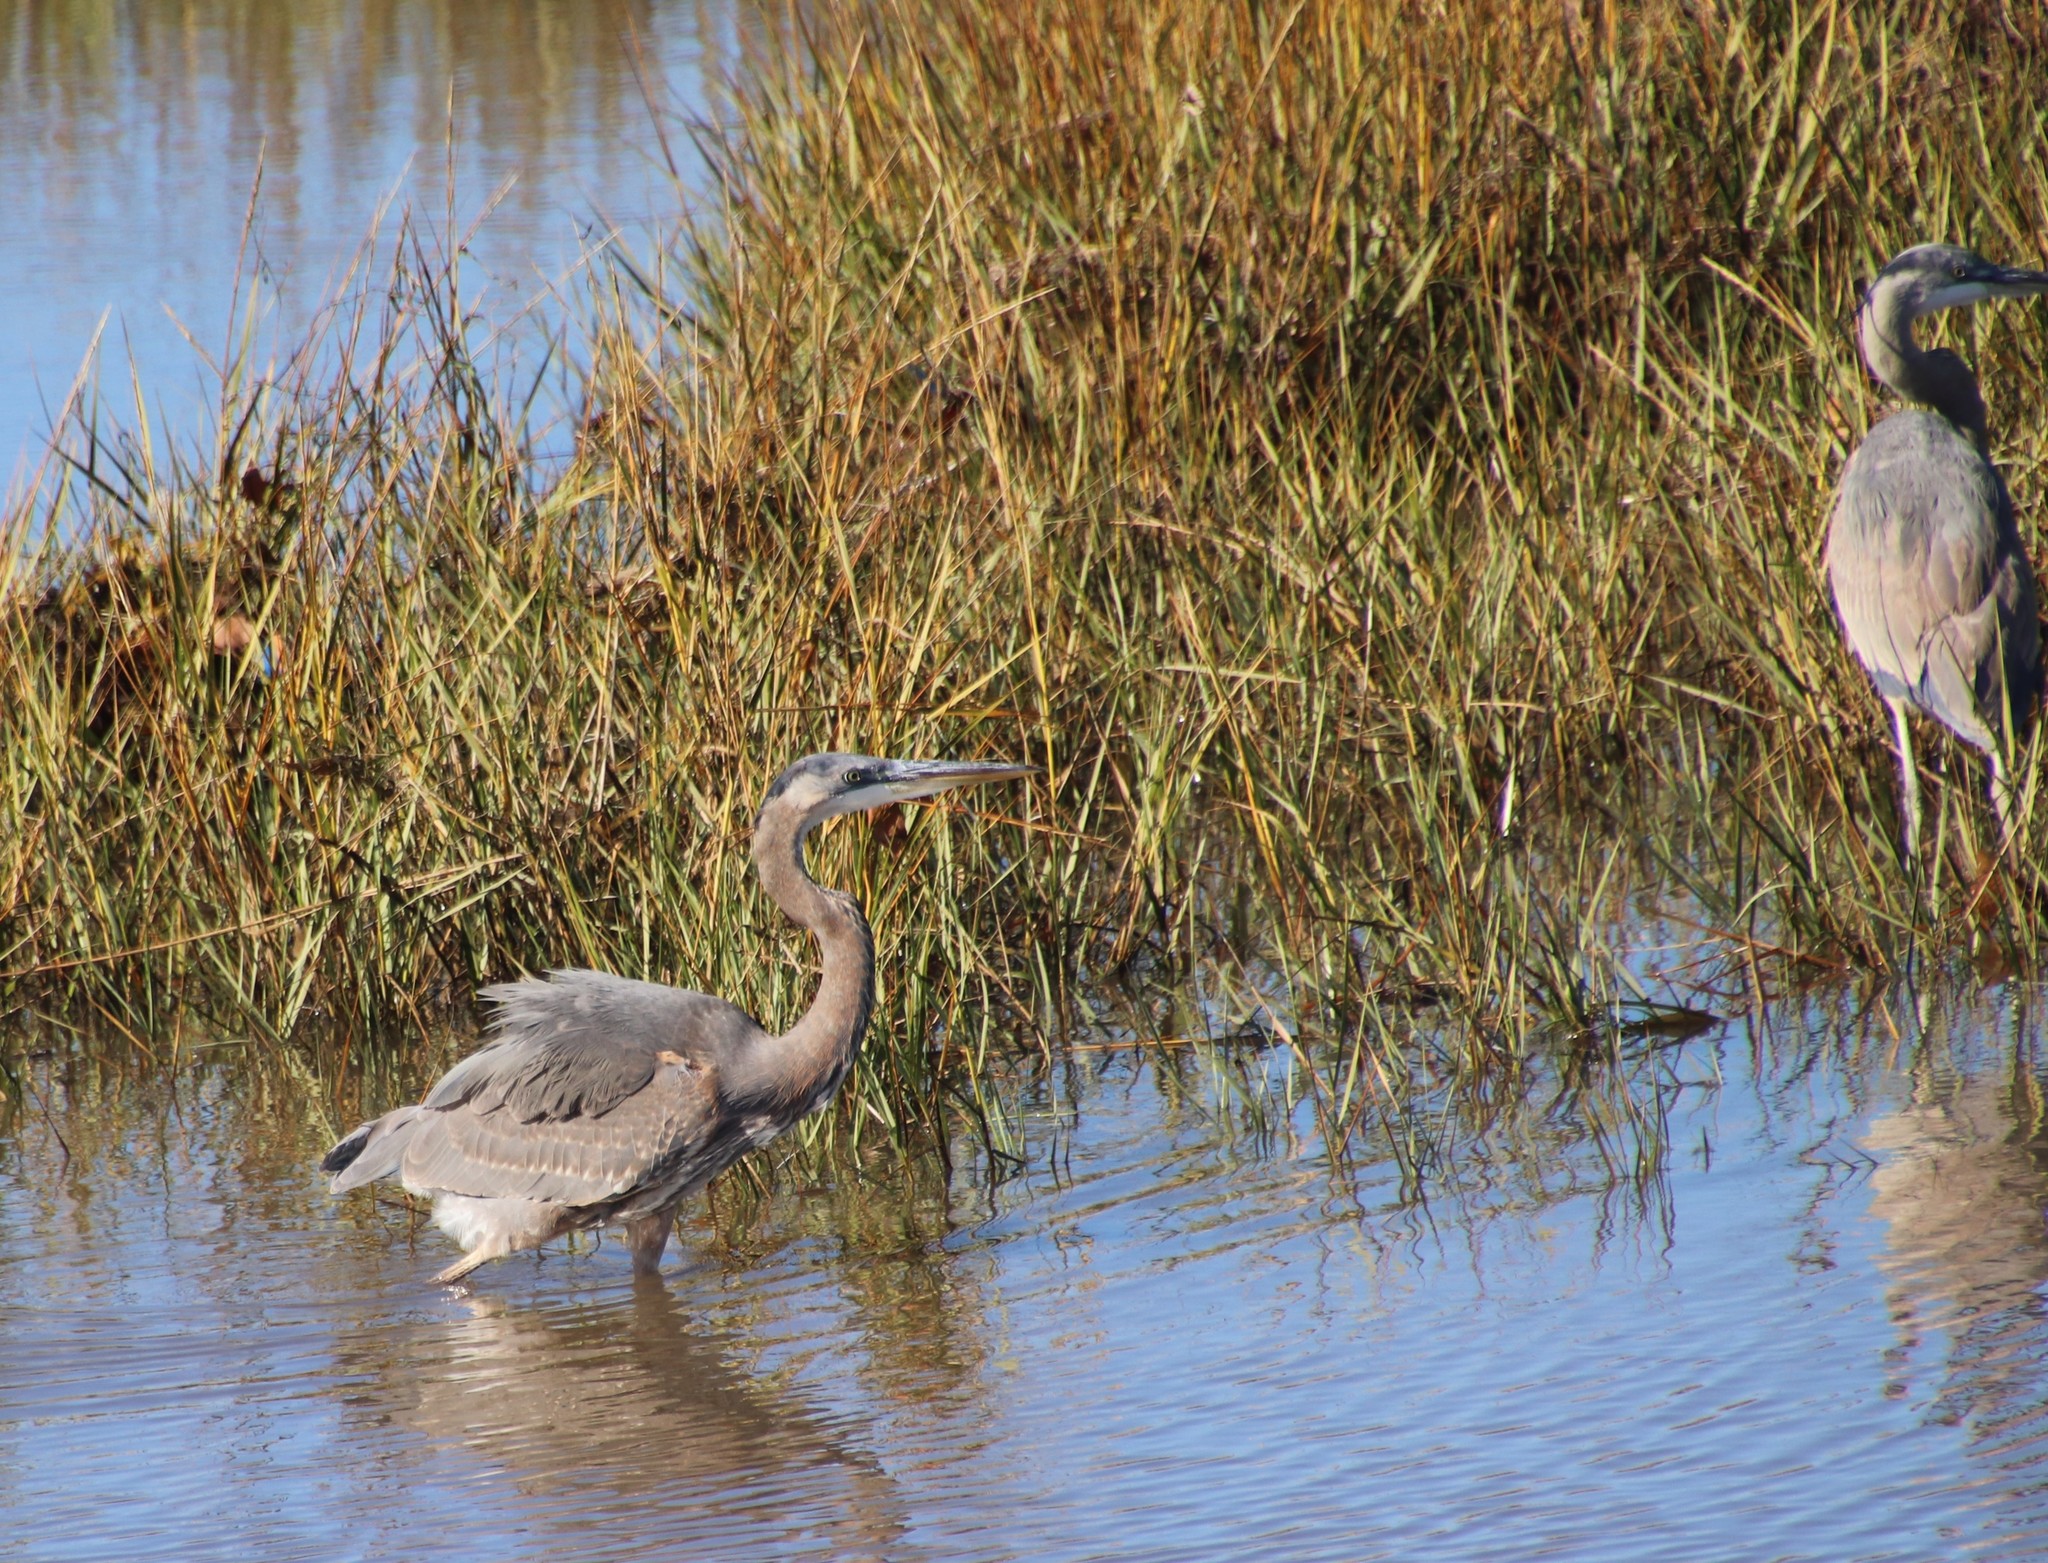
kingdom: Animalia
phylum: Chordata
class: Aves
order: Pelecaniformes
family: Ardeidae
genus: Ardea
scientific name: Ardea herodias
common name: Great blue heron
